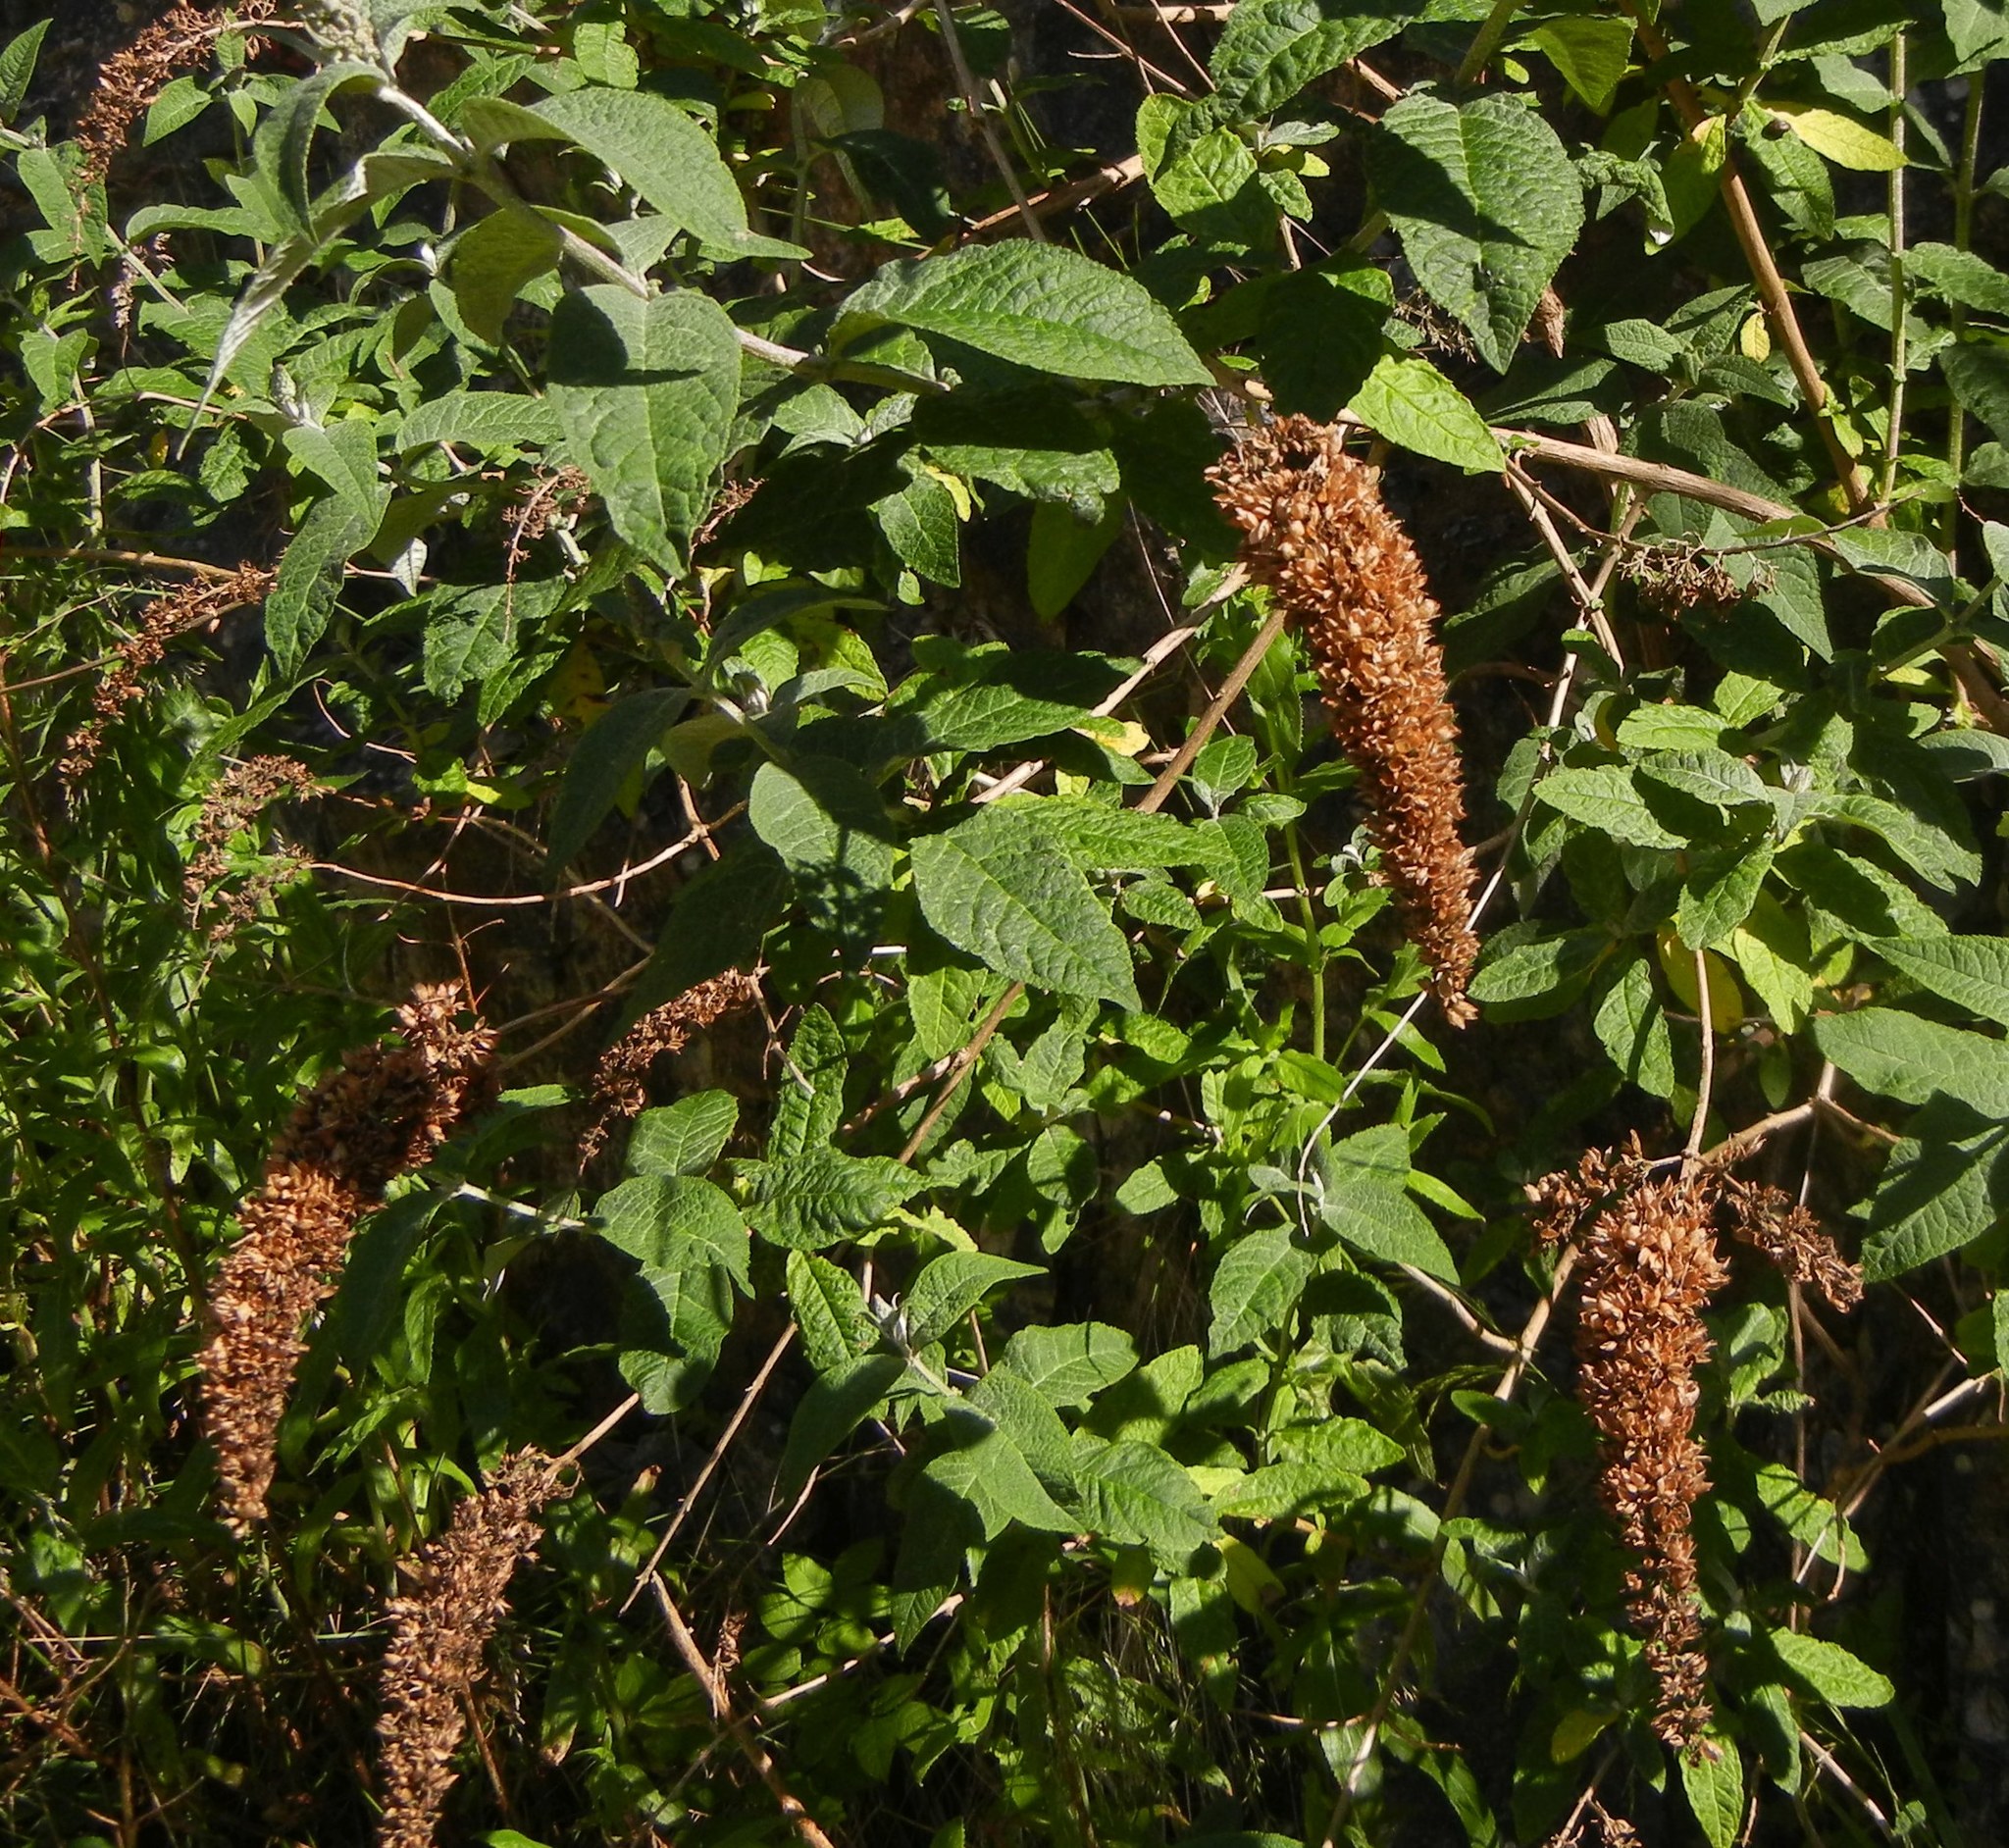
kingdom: Plantae
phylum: Tracheophyta
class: Magnoliopsida
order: Lamiales
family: Scrophulariaceae
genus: Buddleja
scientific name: Buddleja davidii
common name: Butterfly-bush
